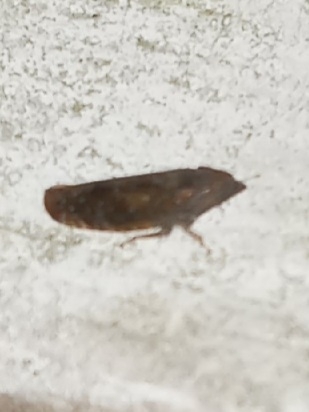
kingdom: Animalia
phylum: Arthropoda
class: Insecta
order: Hemiptera
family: Cicadellidae
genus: Scaphytopius
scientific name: Scaphytopius rubellus
